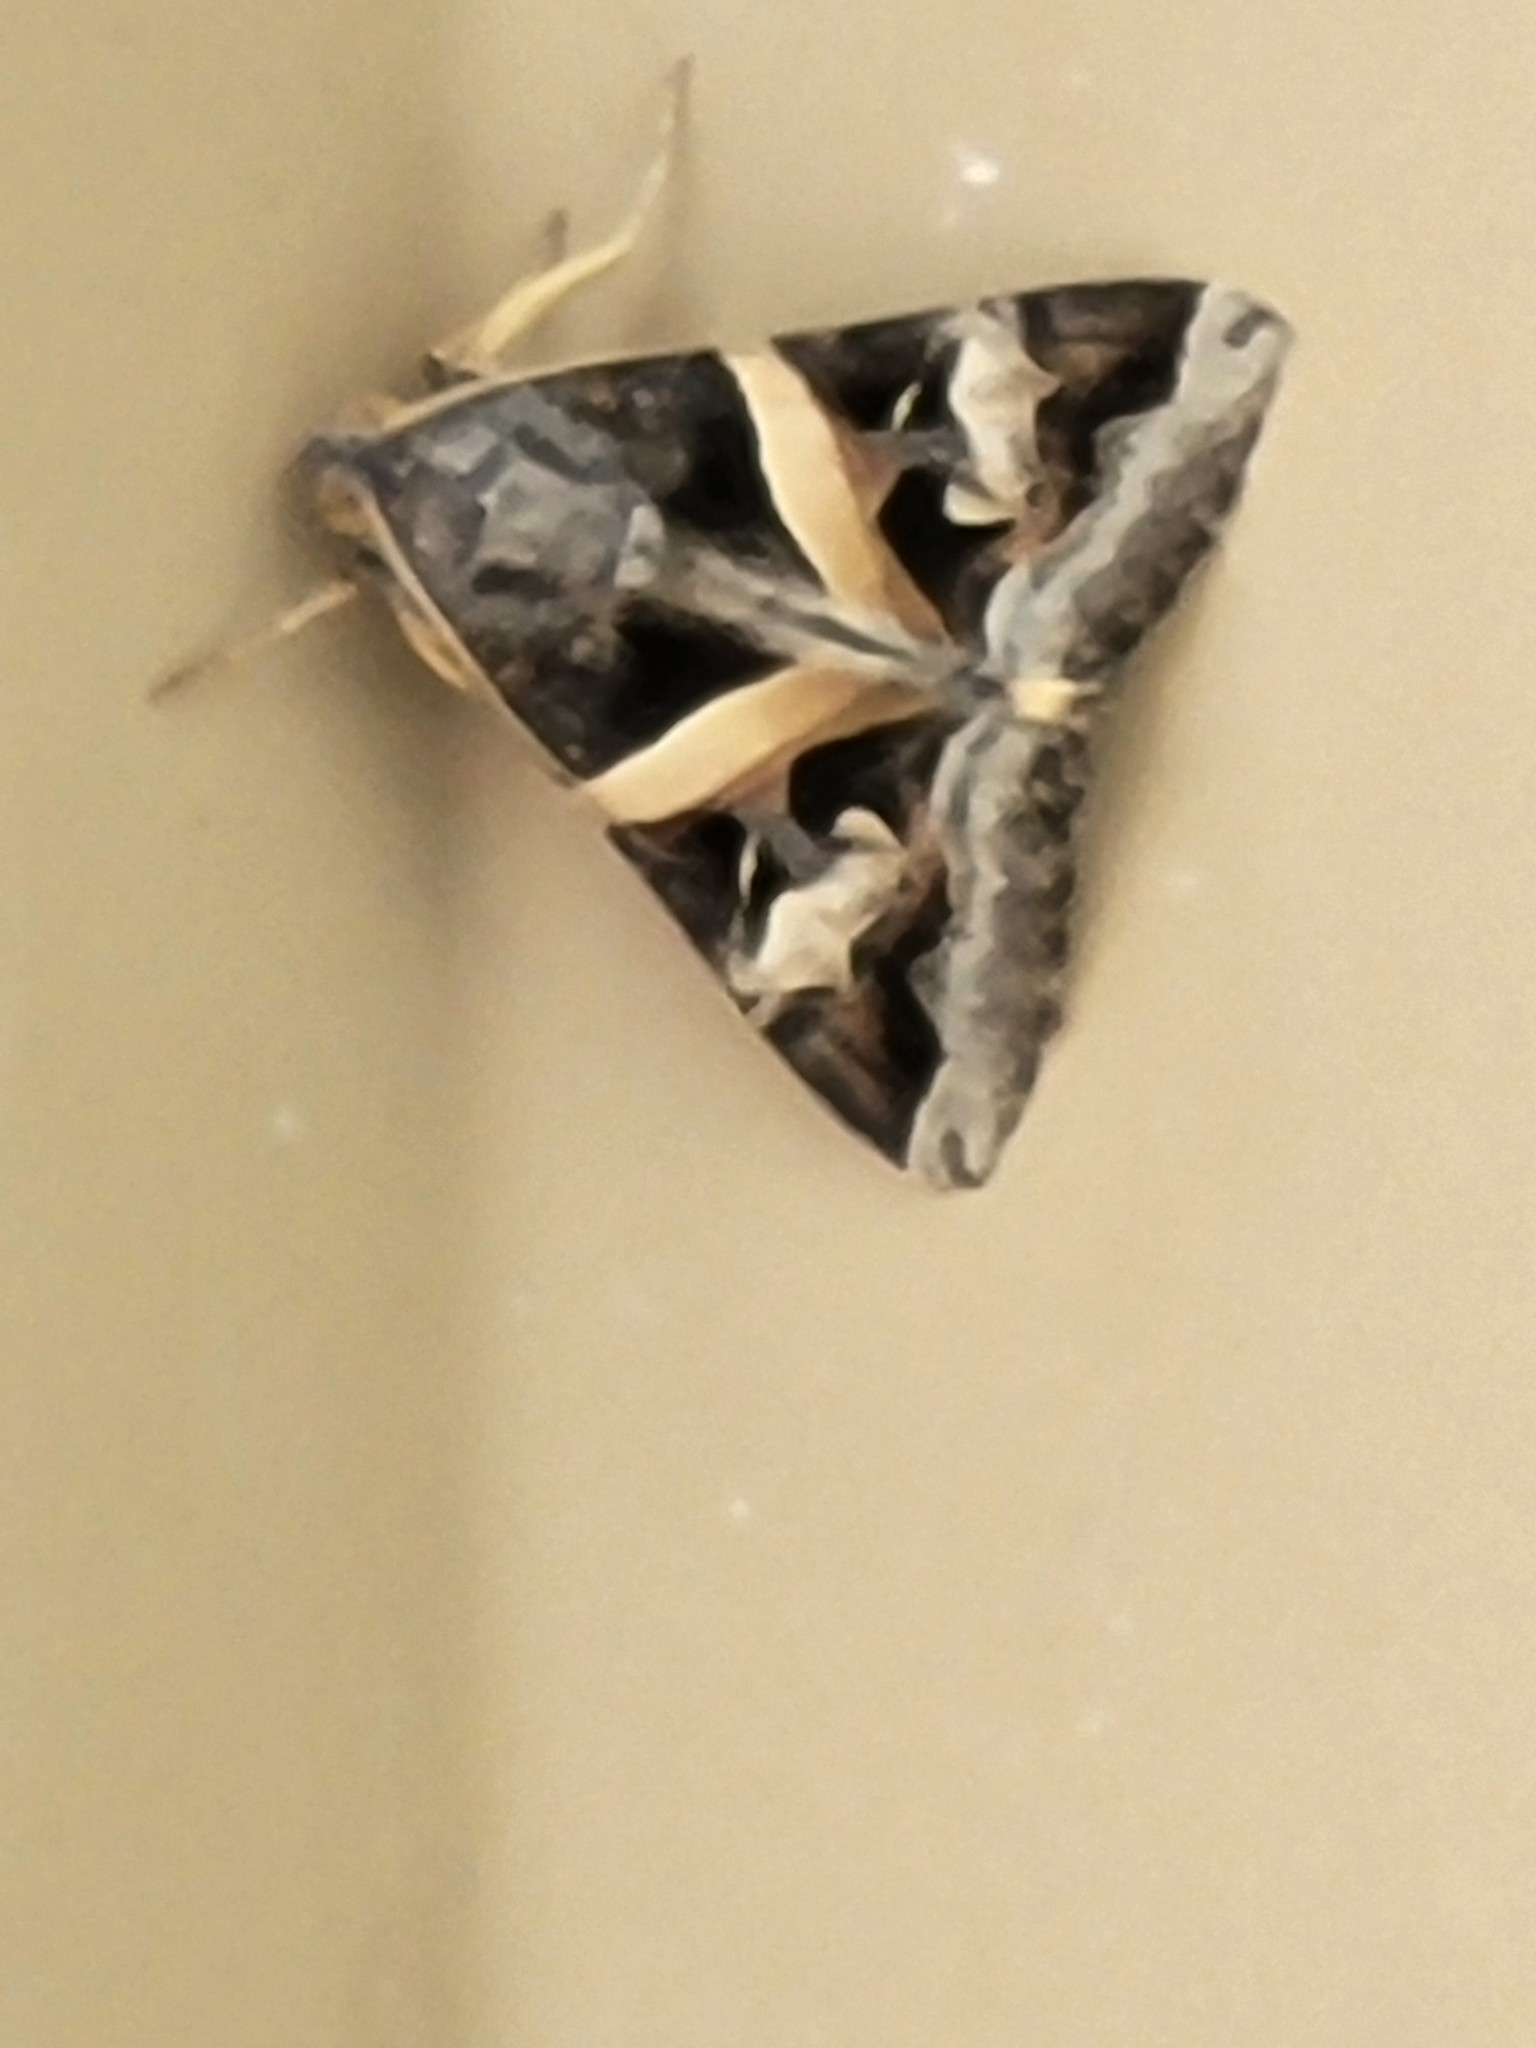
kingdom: Animalia
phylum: Arthropoda
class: Insecta
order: Lepidoptera
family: Erebidae
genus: Melipotis
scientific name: Melipotis indomita
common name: Moth
